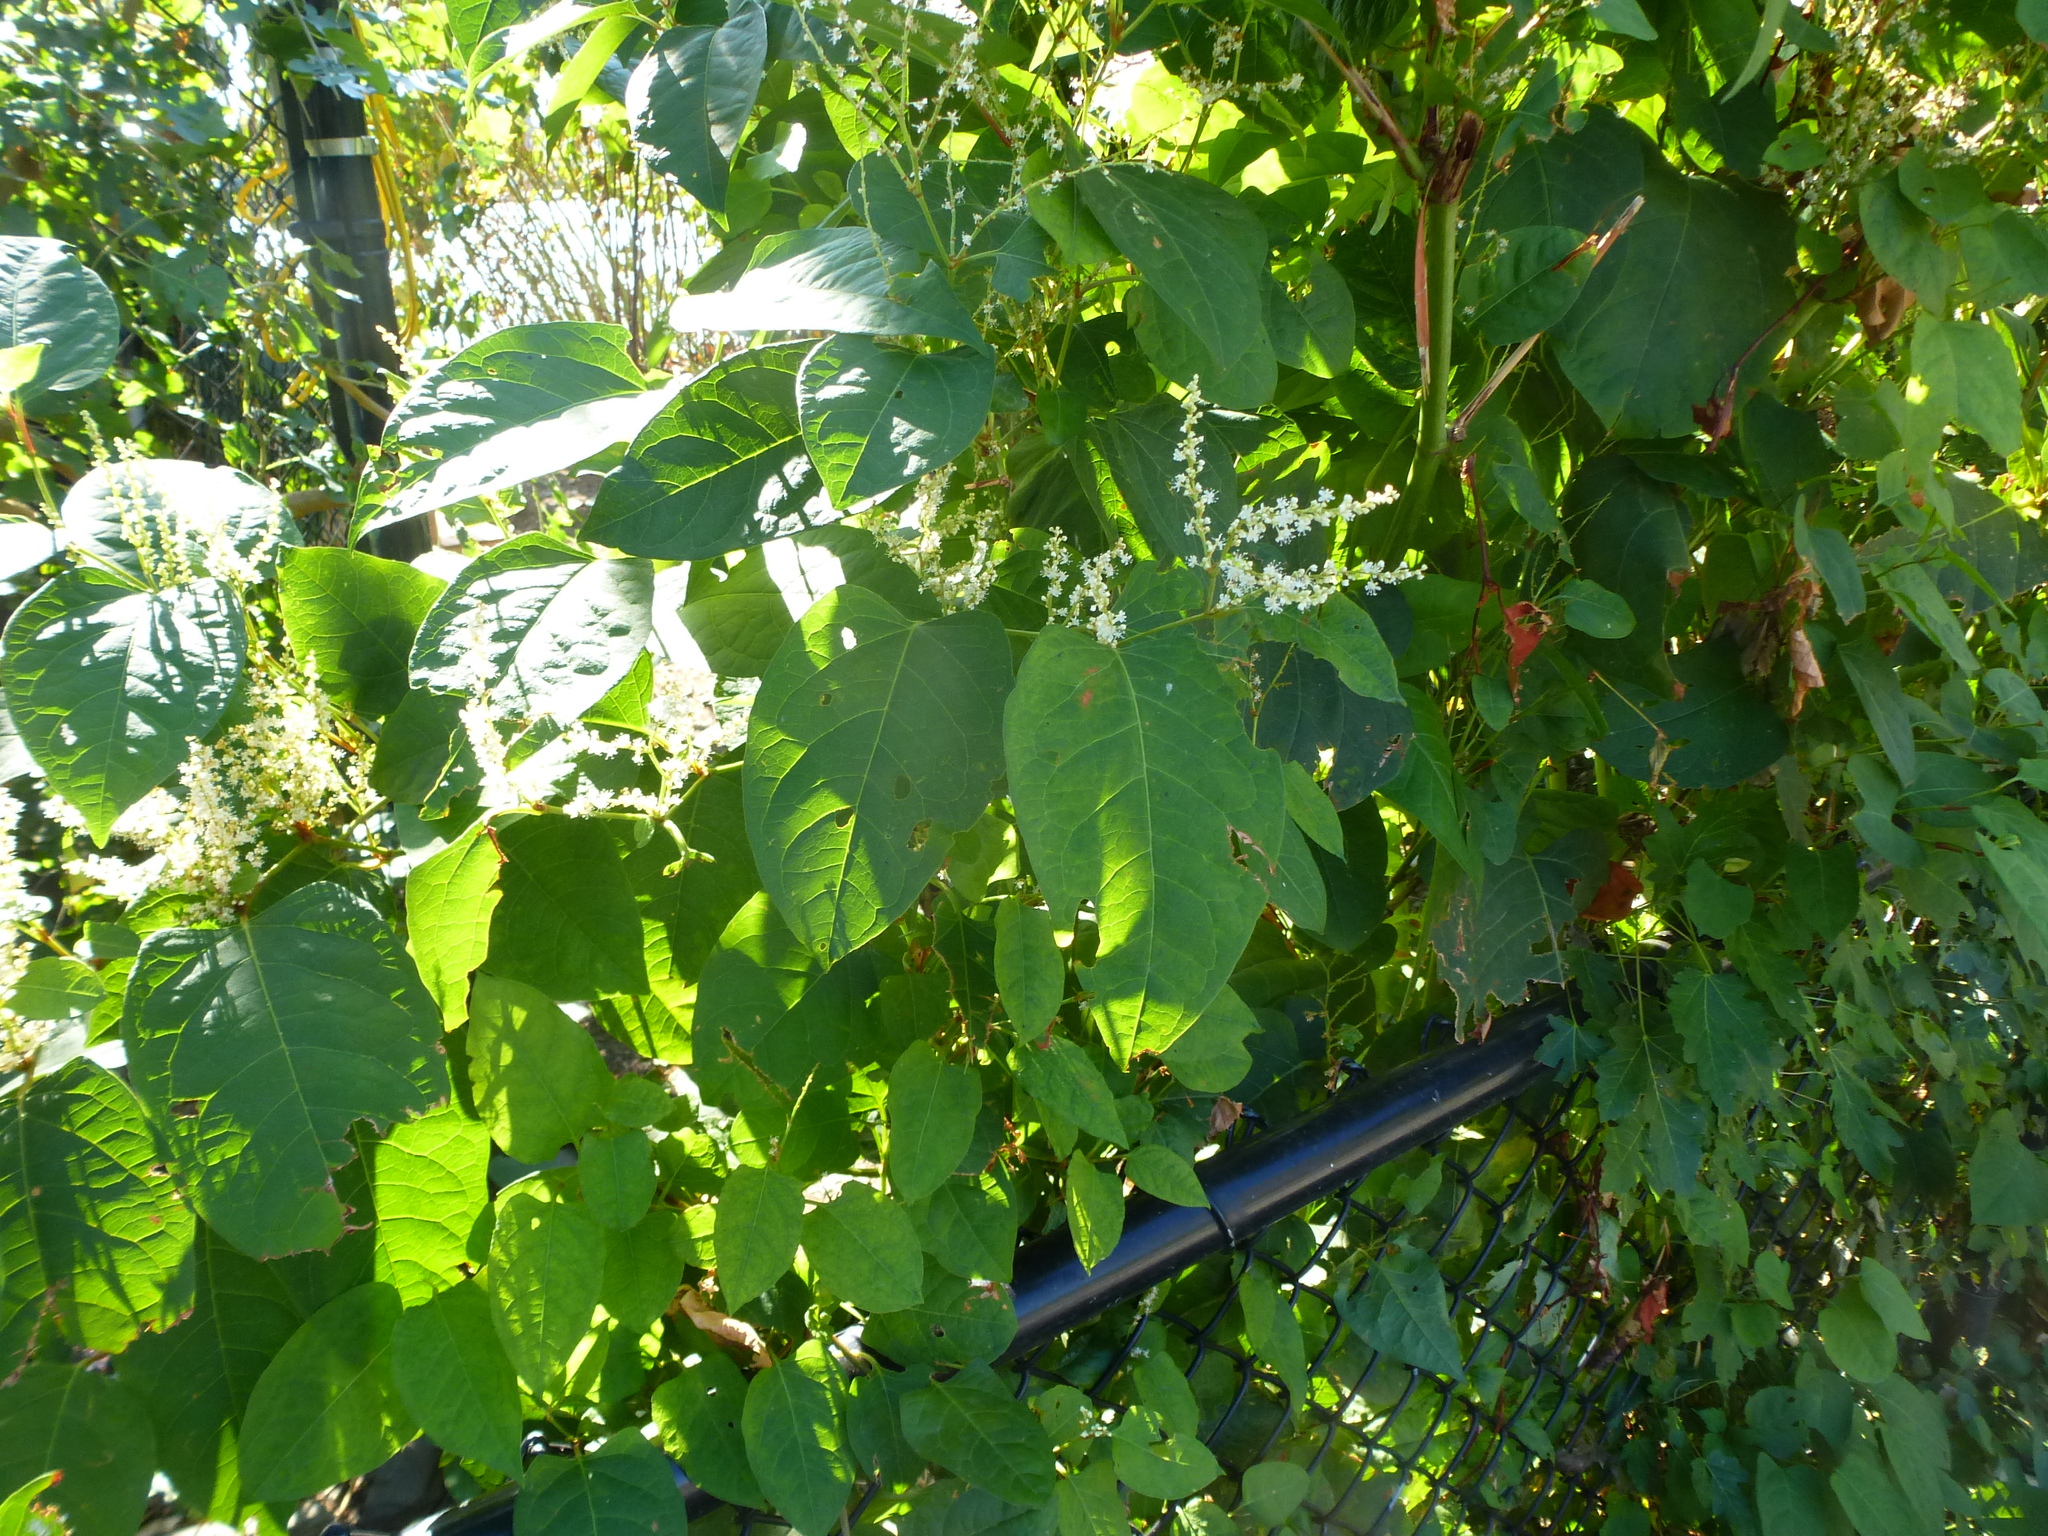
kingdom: Plantae
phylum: Tracheophyta
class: Magnoliopsida
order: Caryophyllales
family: Polygonaceae
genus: Reynoutria
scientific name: Reynoutria japonica
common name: Japanese knotweed
